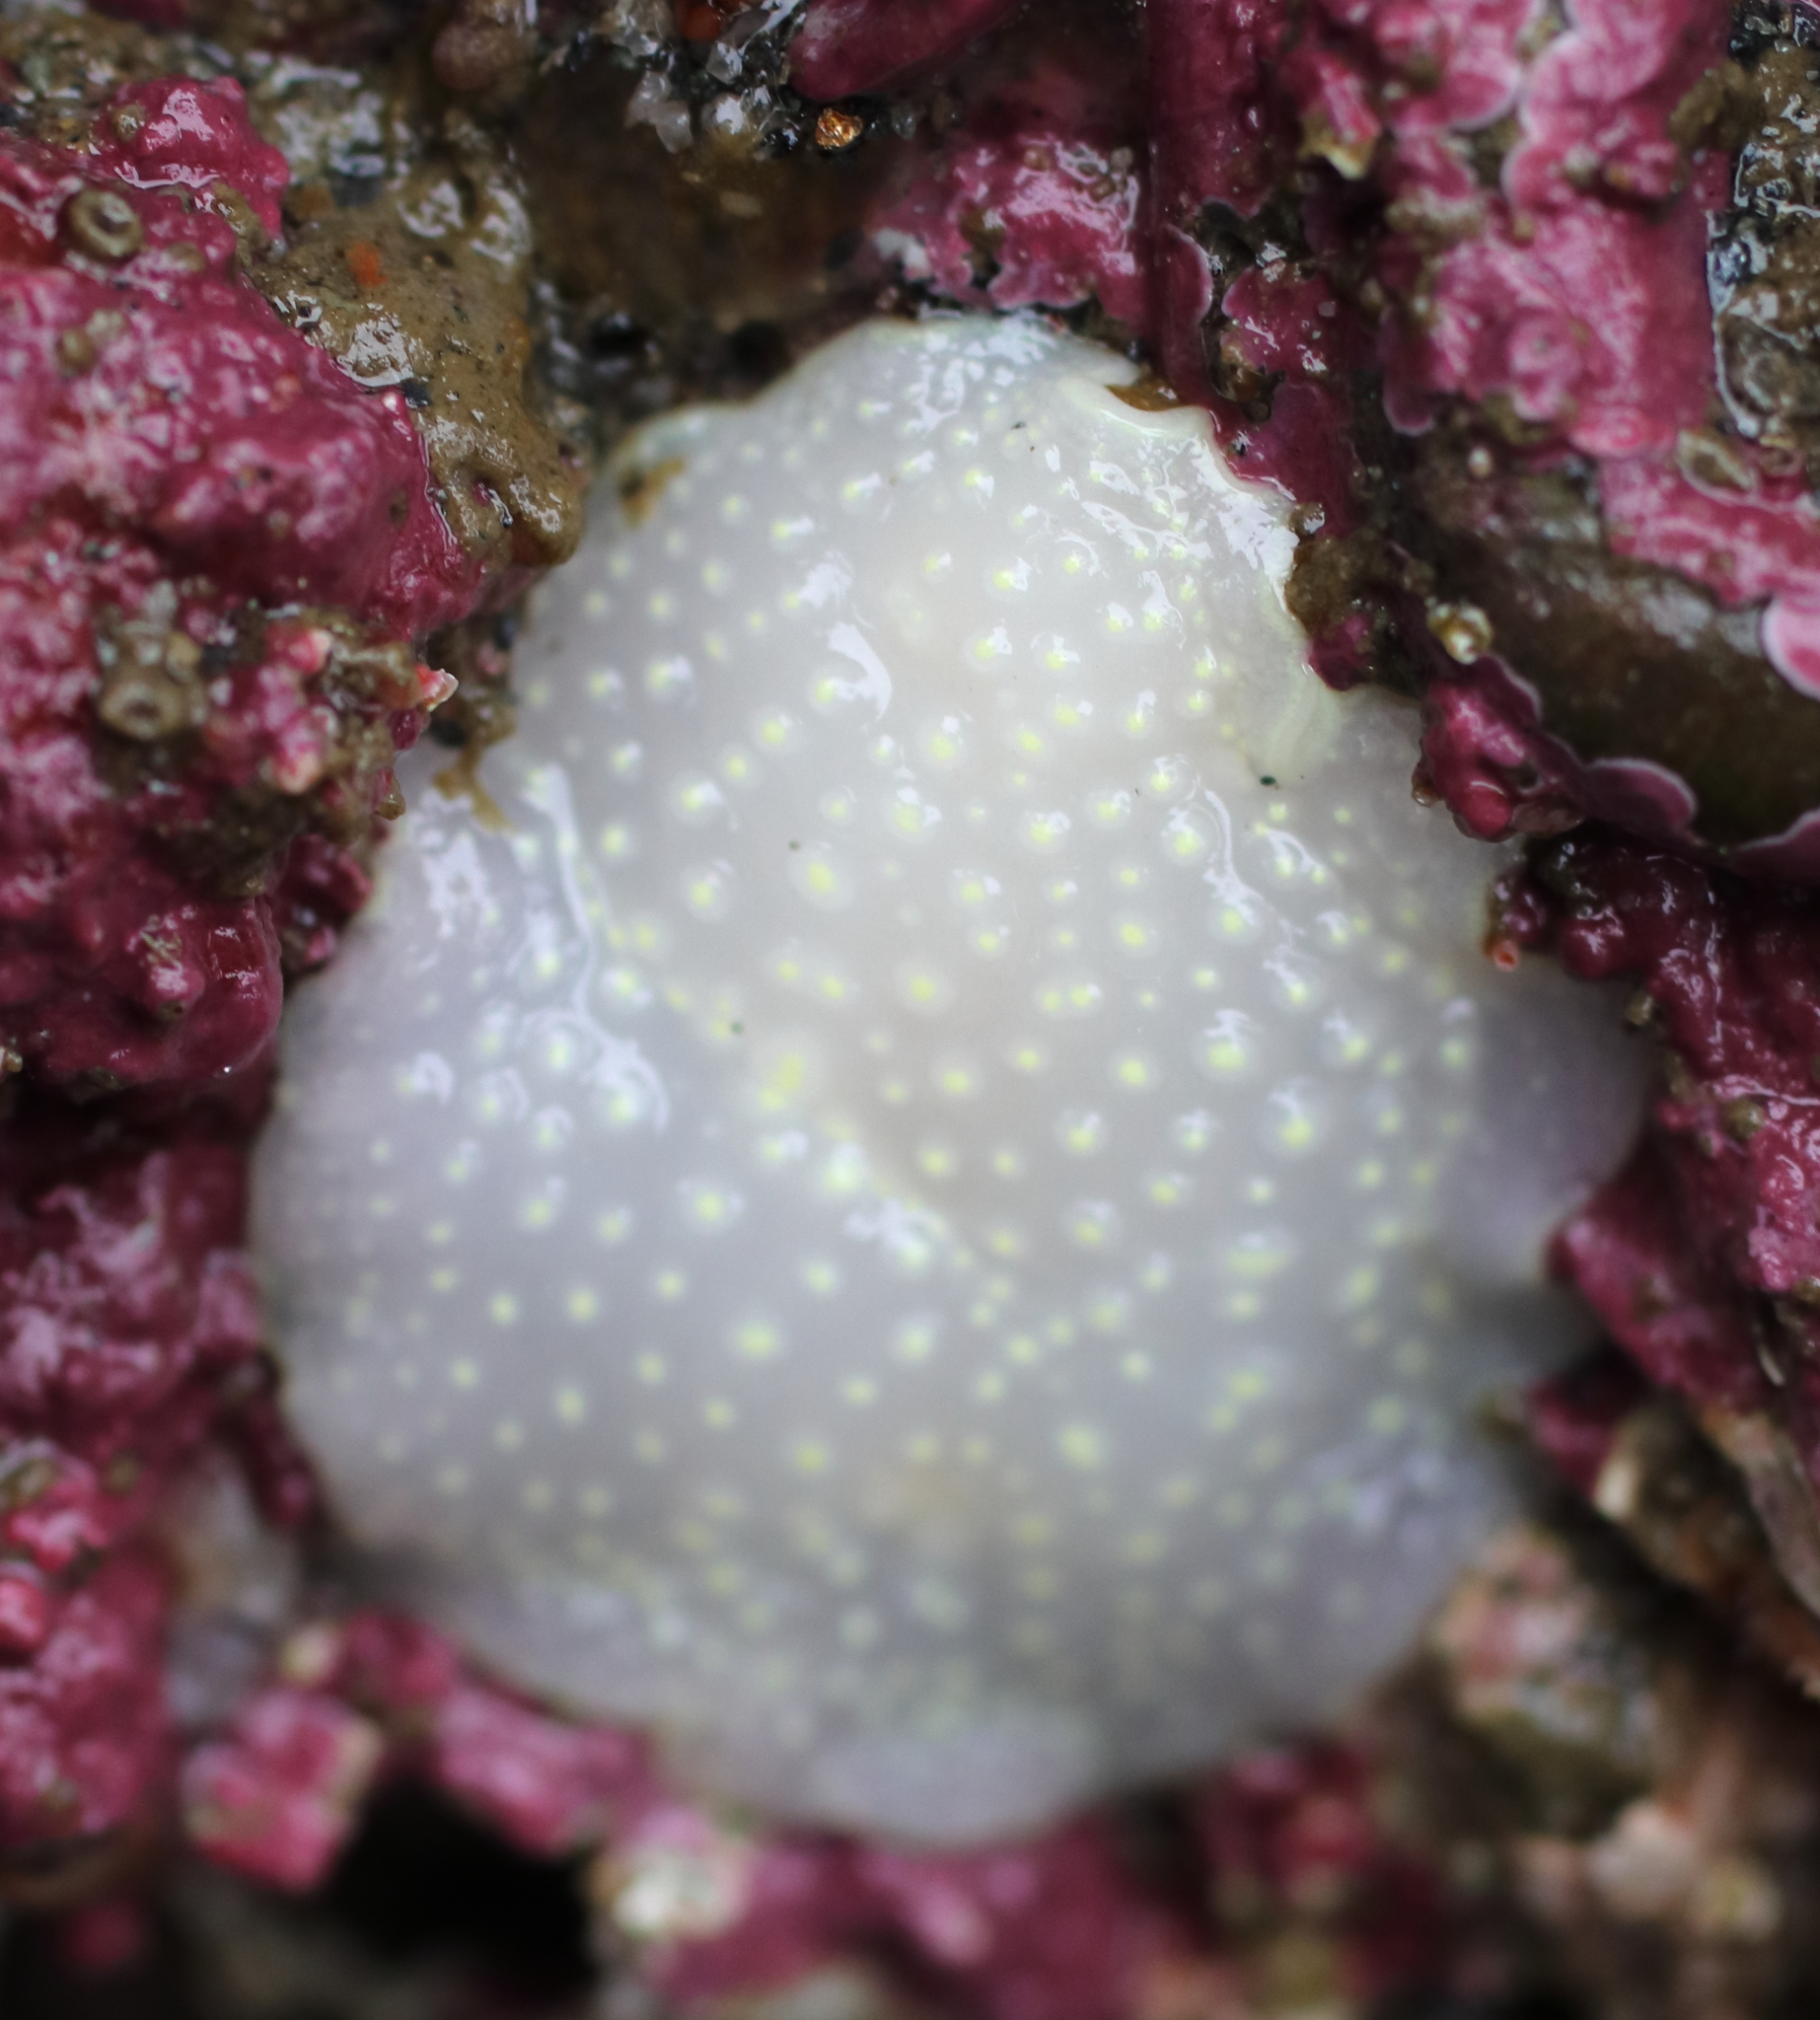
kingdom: Animalia
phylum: Mollusca
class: Gastropoda
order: Nudibranchia
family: Cadlinidae
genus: Cadlina
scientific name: Cadlina luteomarginata
